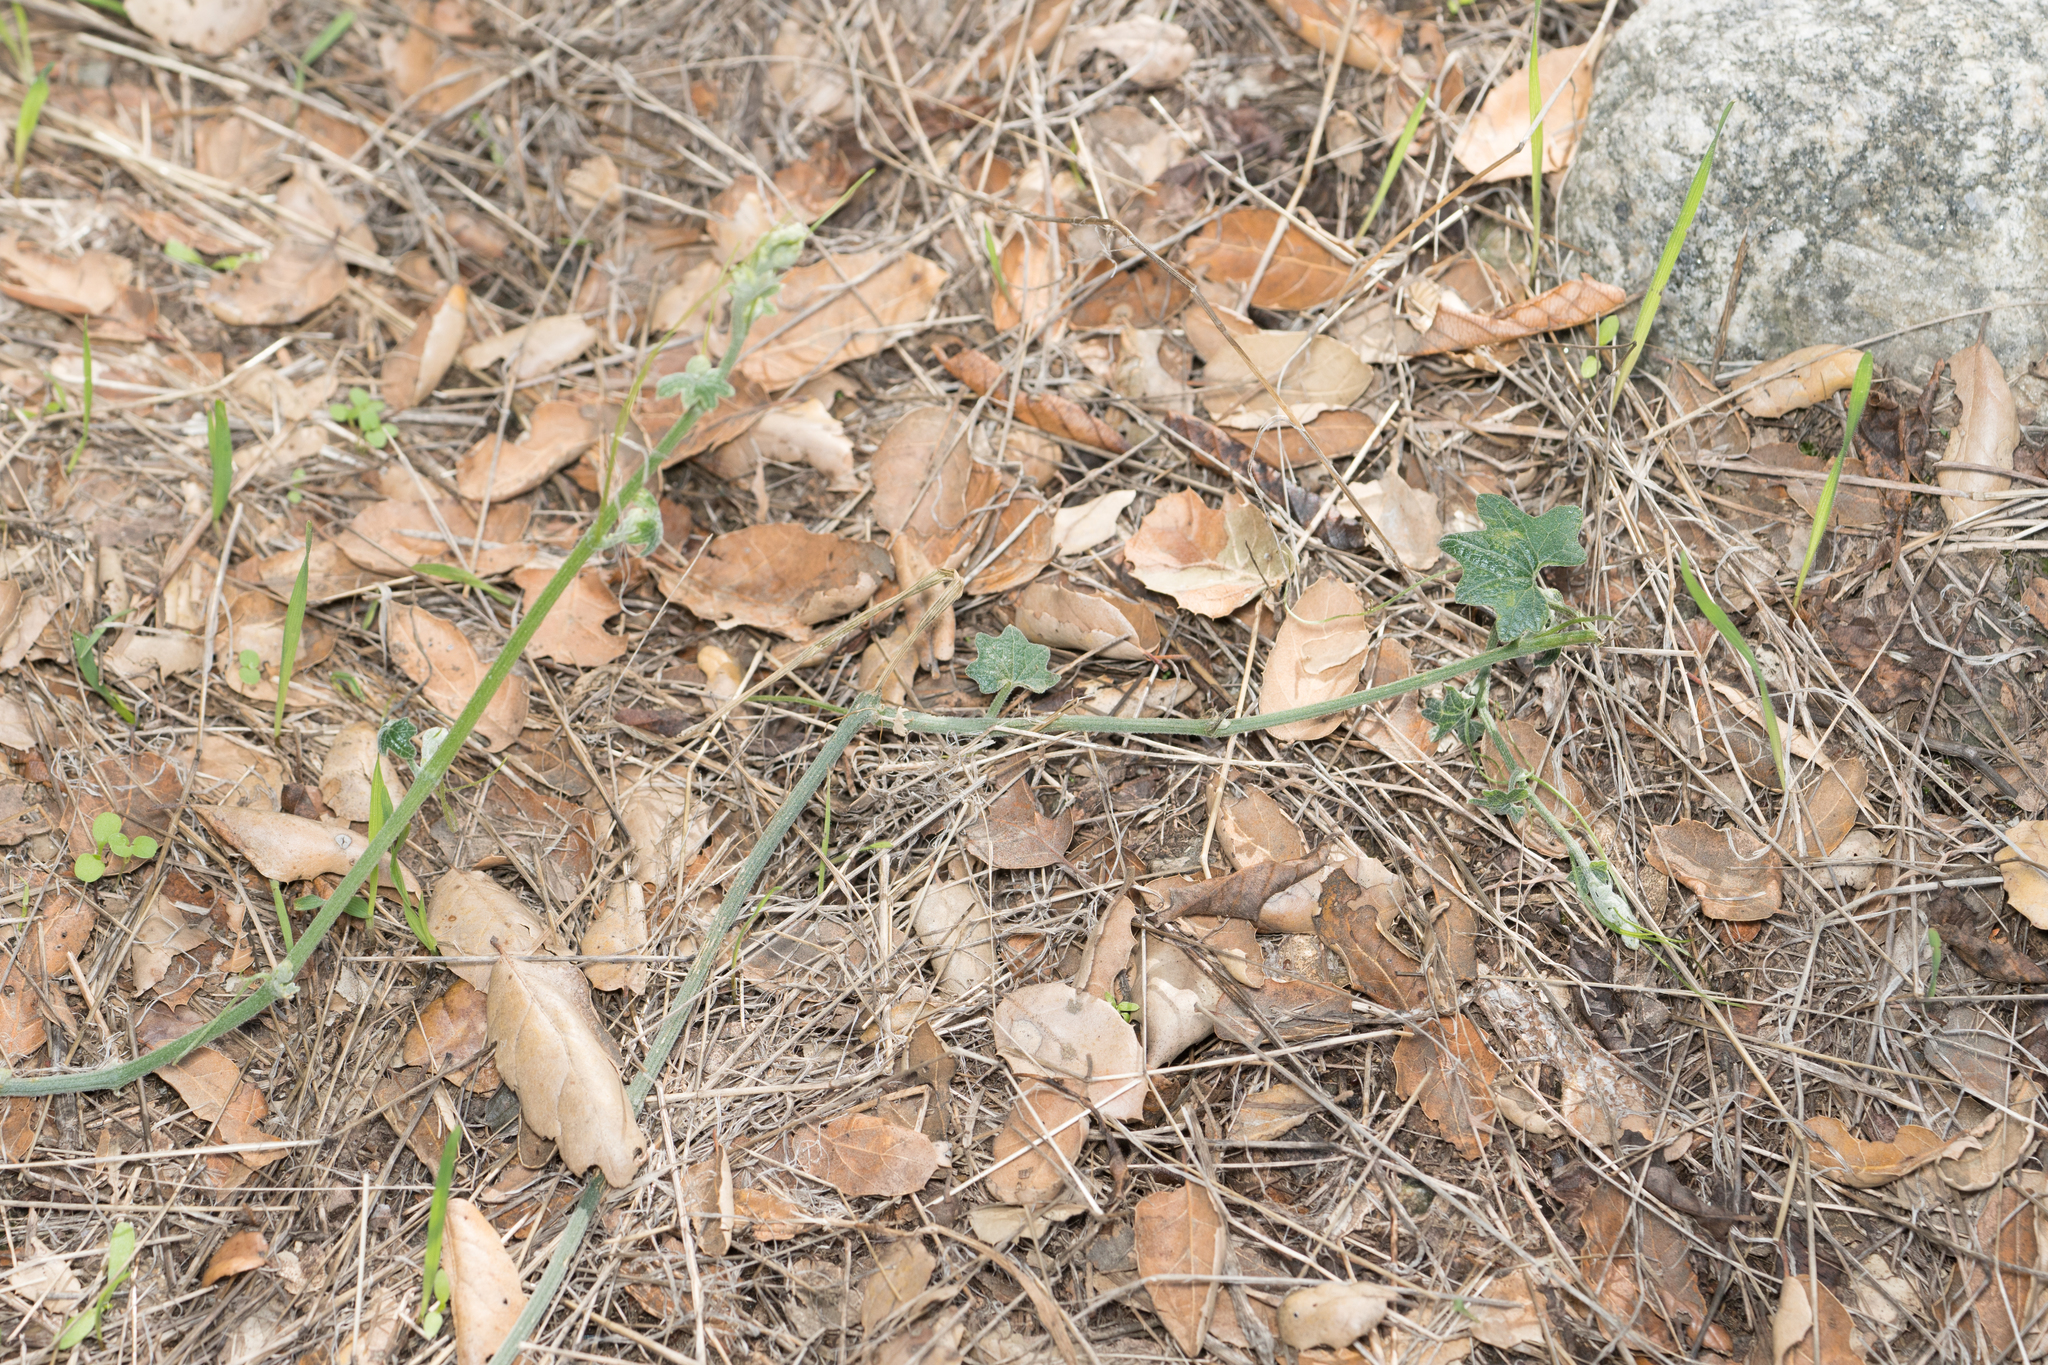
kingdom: Plantae
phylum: Tracheophyta
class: Magnoliopsida
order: Cucurbitales
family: Cucurbitaceae
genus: Marah
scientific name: Marah macrocarpa
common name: Cucamonga manroot
